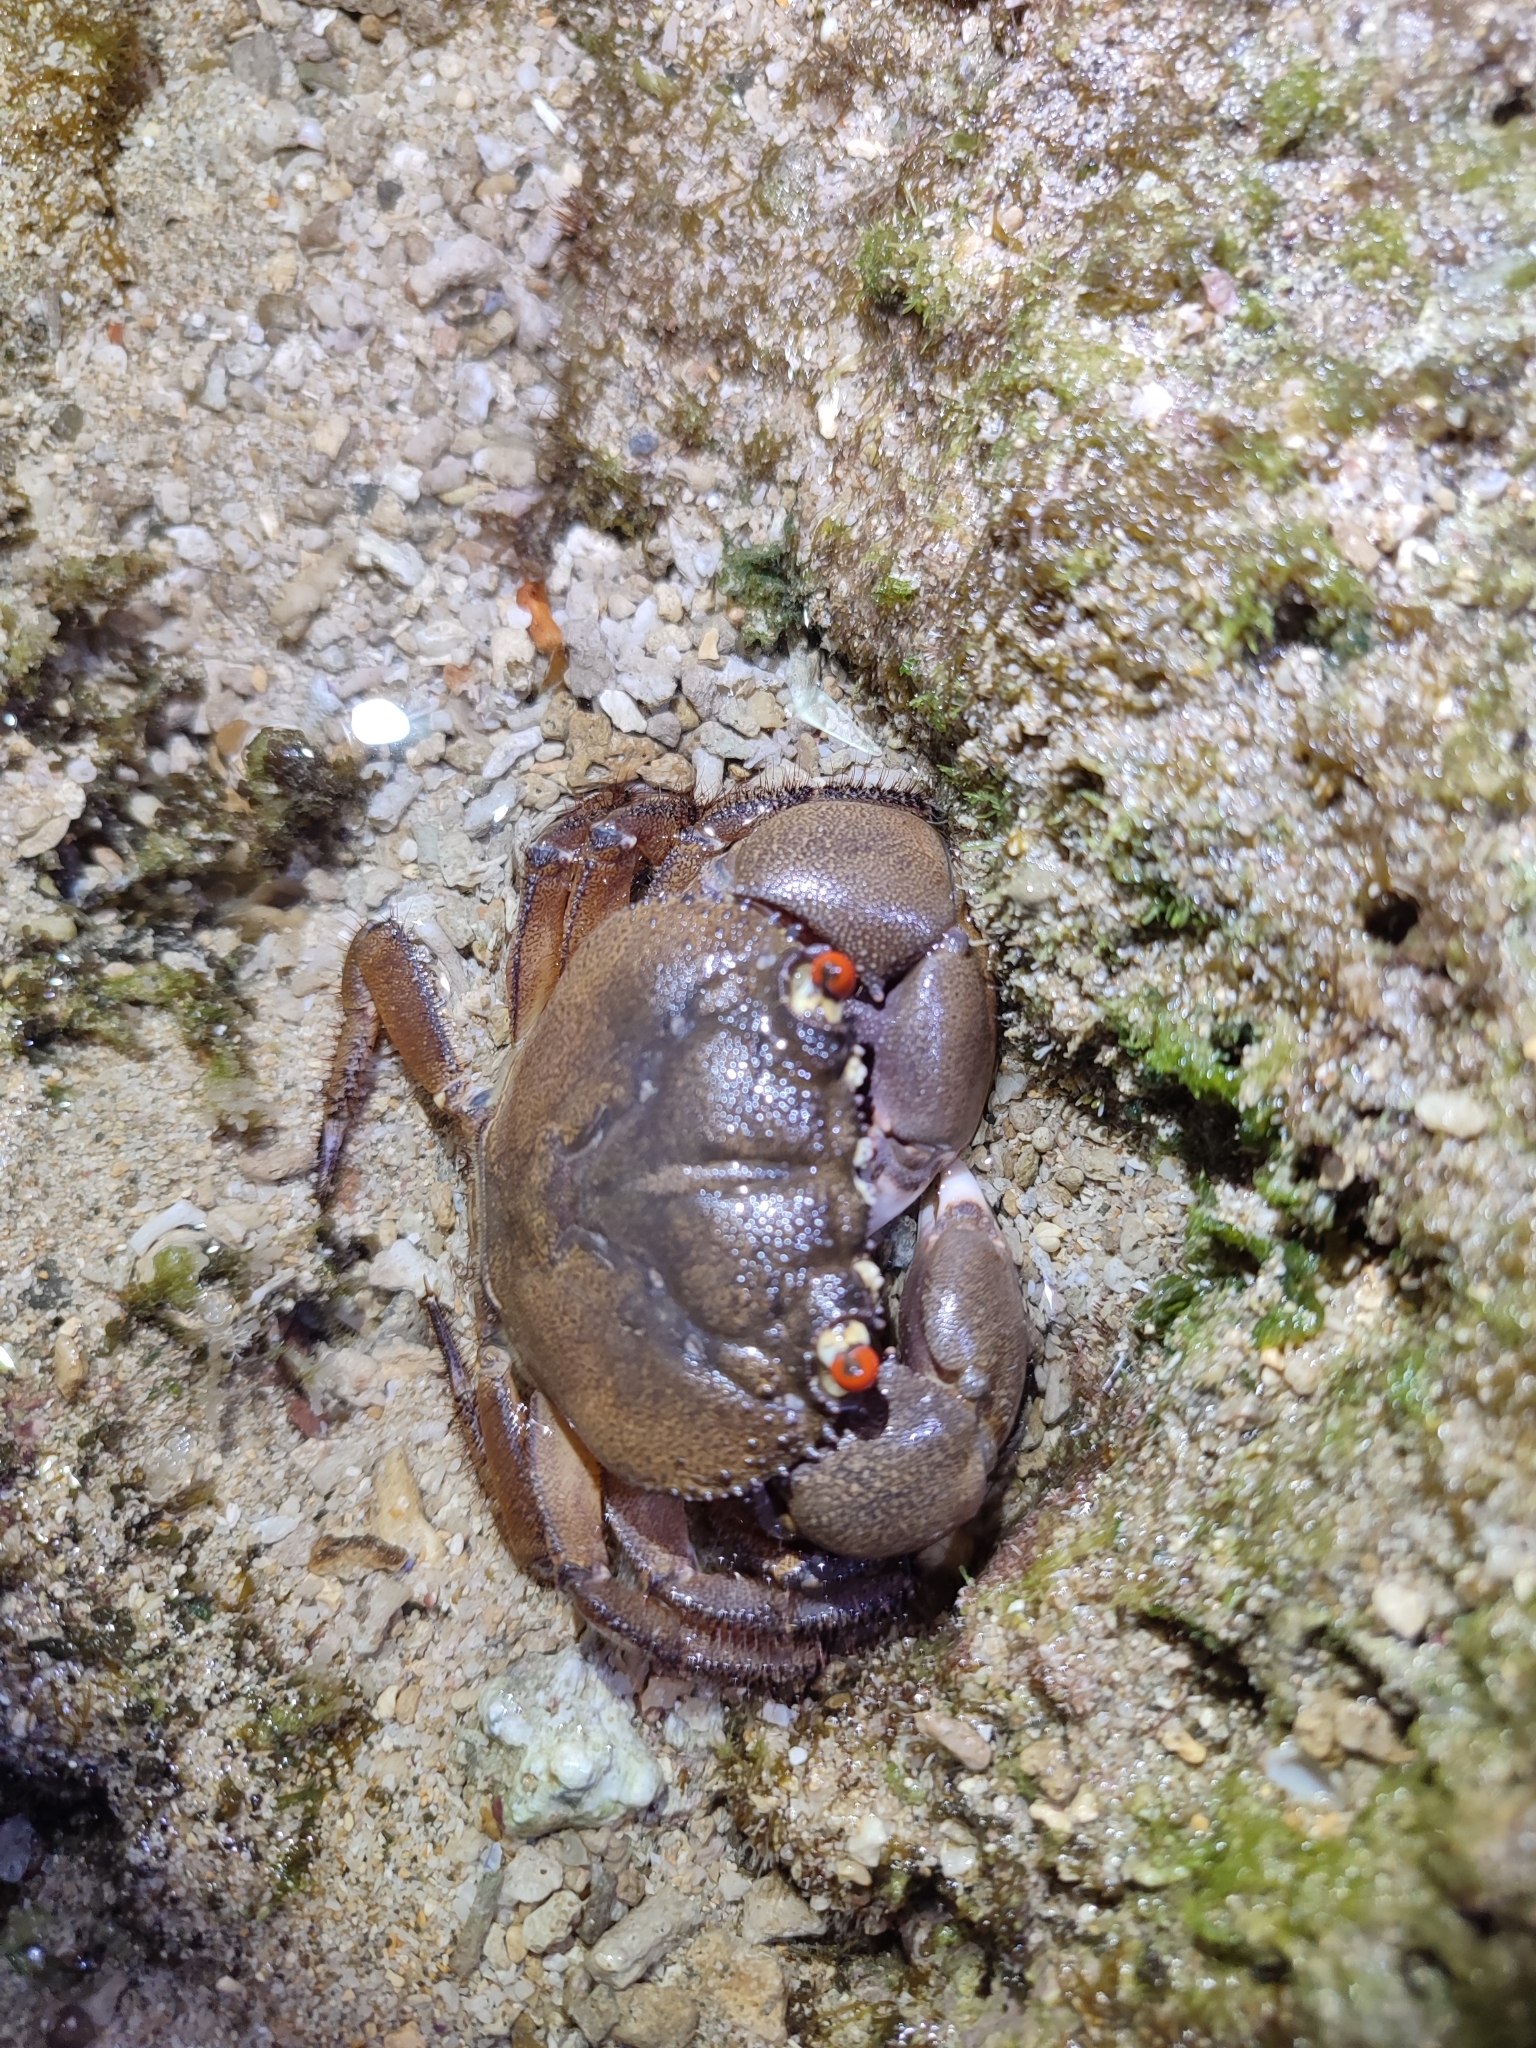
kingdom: Animalia
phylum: Arthropoda
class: Malacostraca
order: Decapoda
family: Eriphiidae
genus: Eriphia
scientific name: Eriphia sebana
